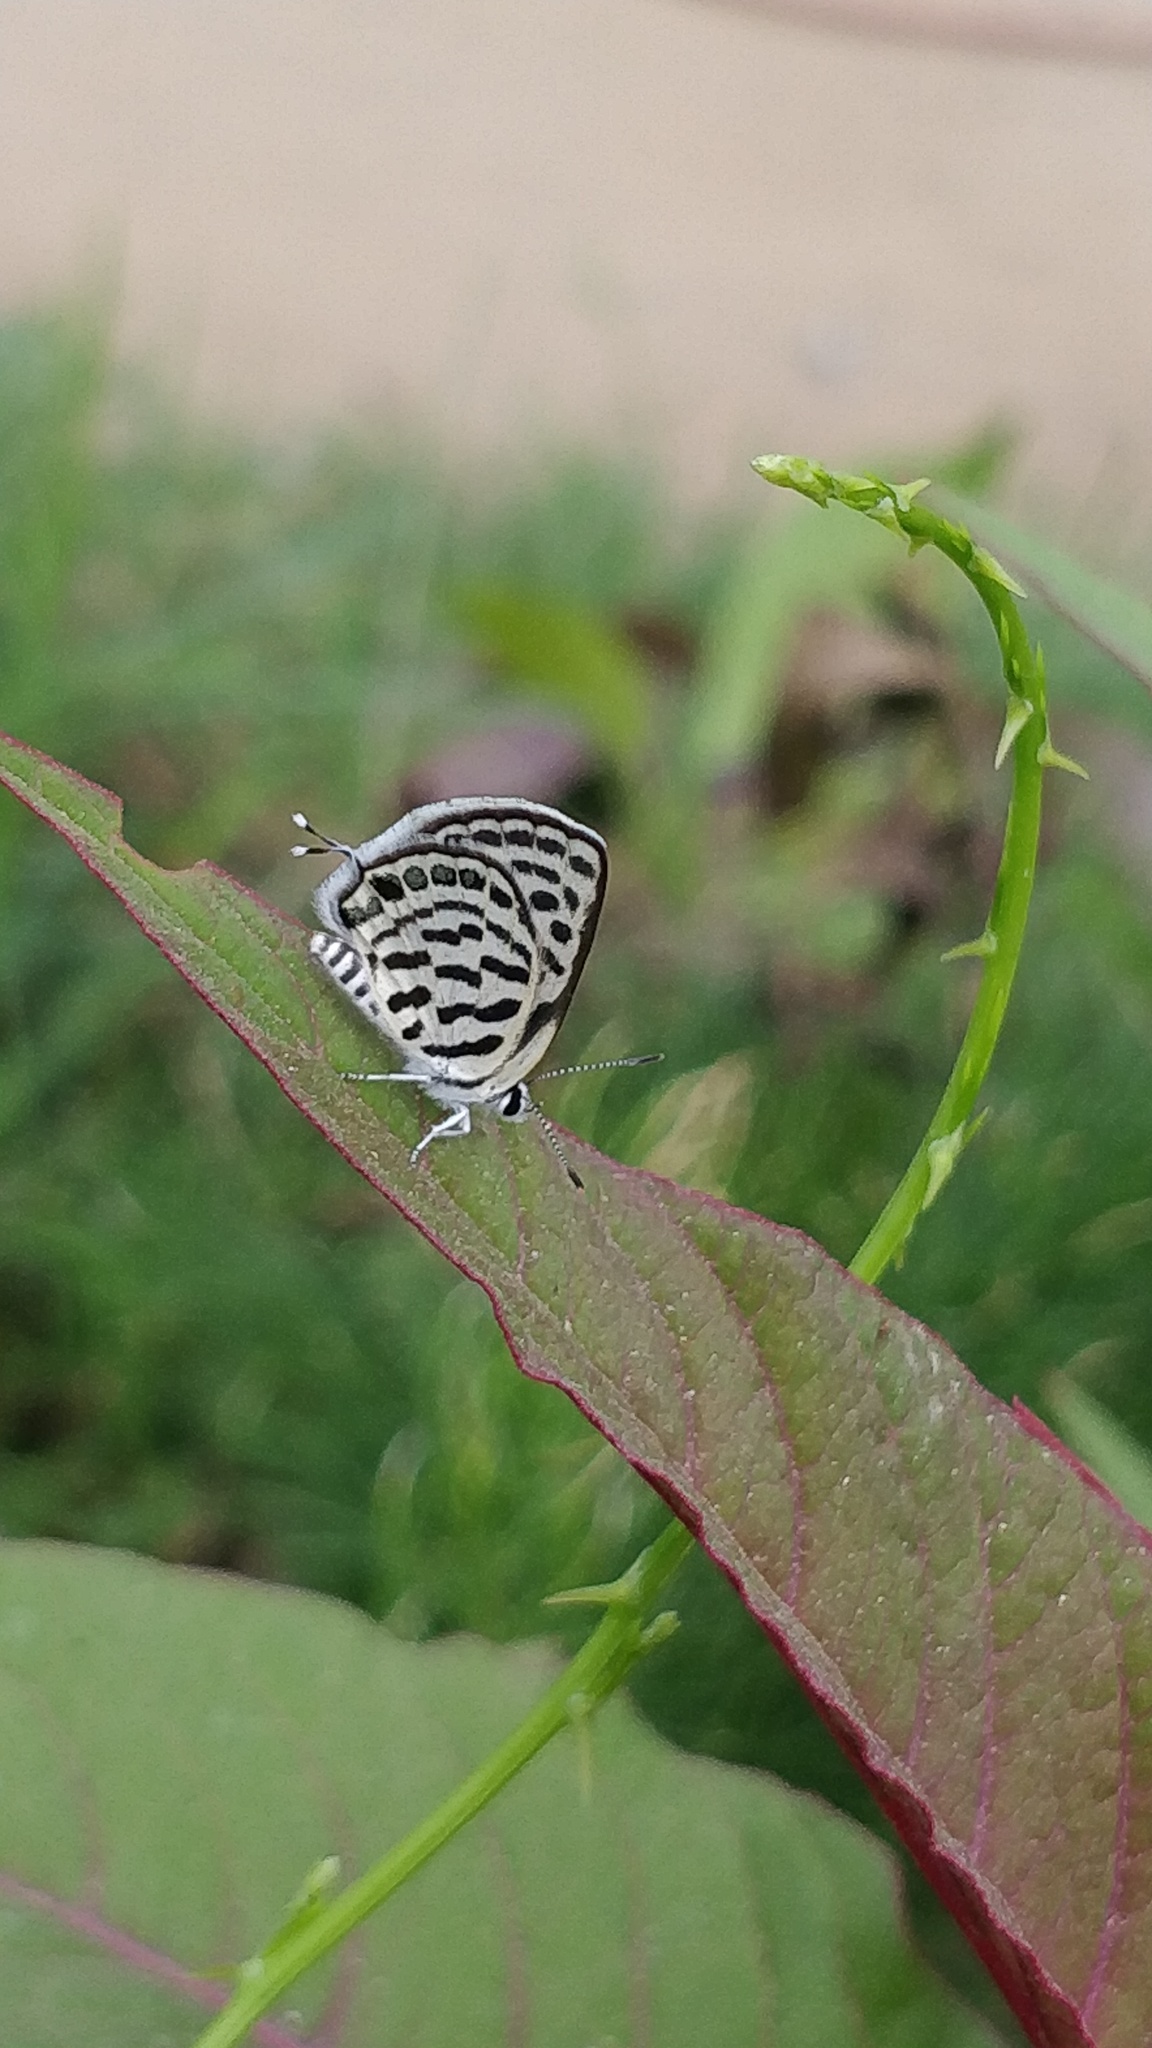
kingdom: Animalia
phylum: Arthropoda
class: Insecta
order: Lepidoptera
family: Lycaenidae
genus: Tarucus
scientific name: Tarucus balkanica
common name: Little tiger blue
